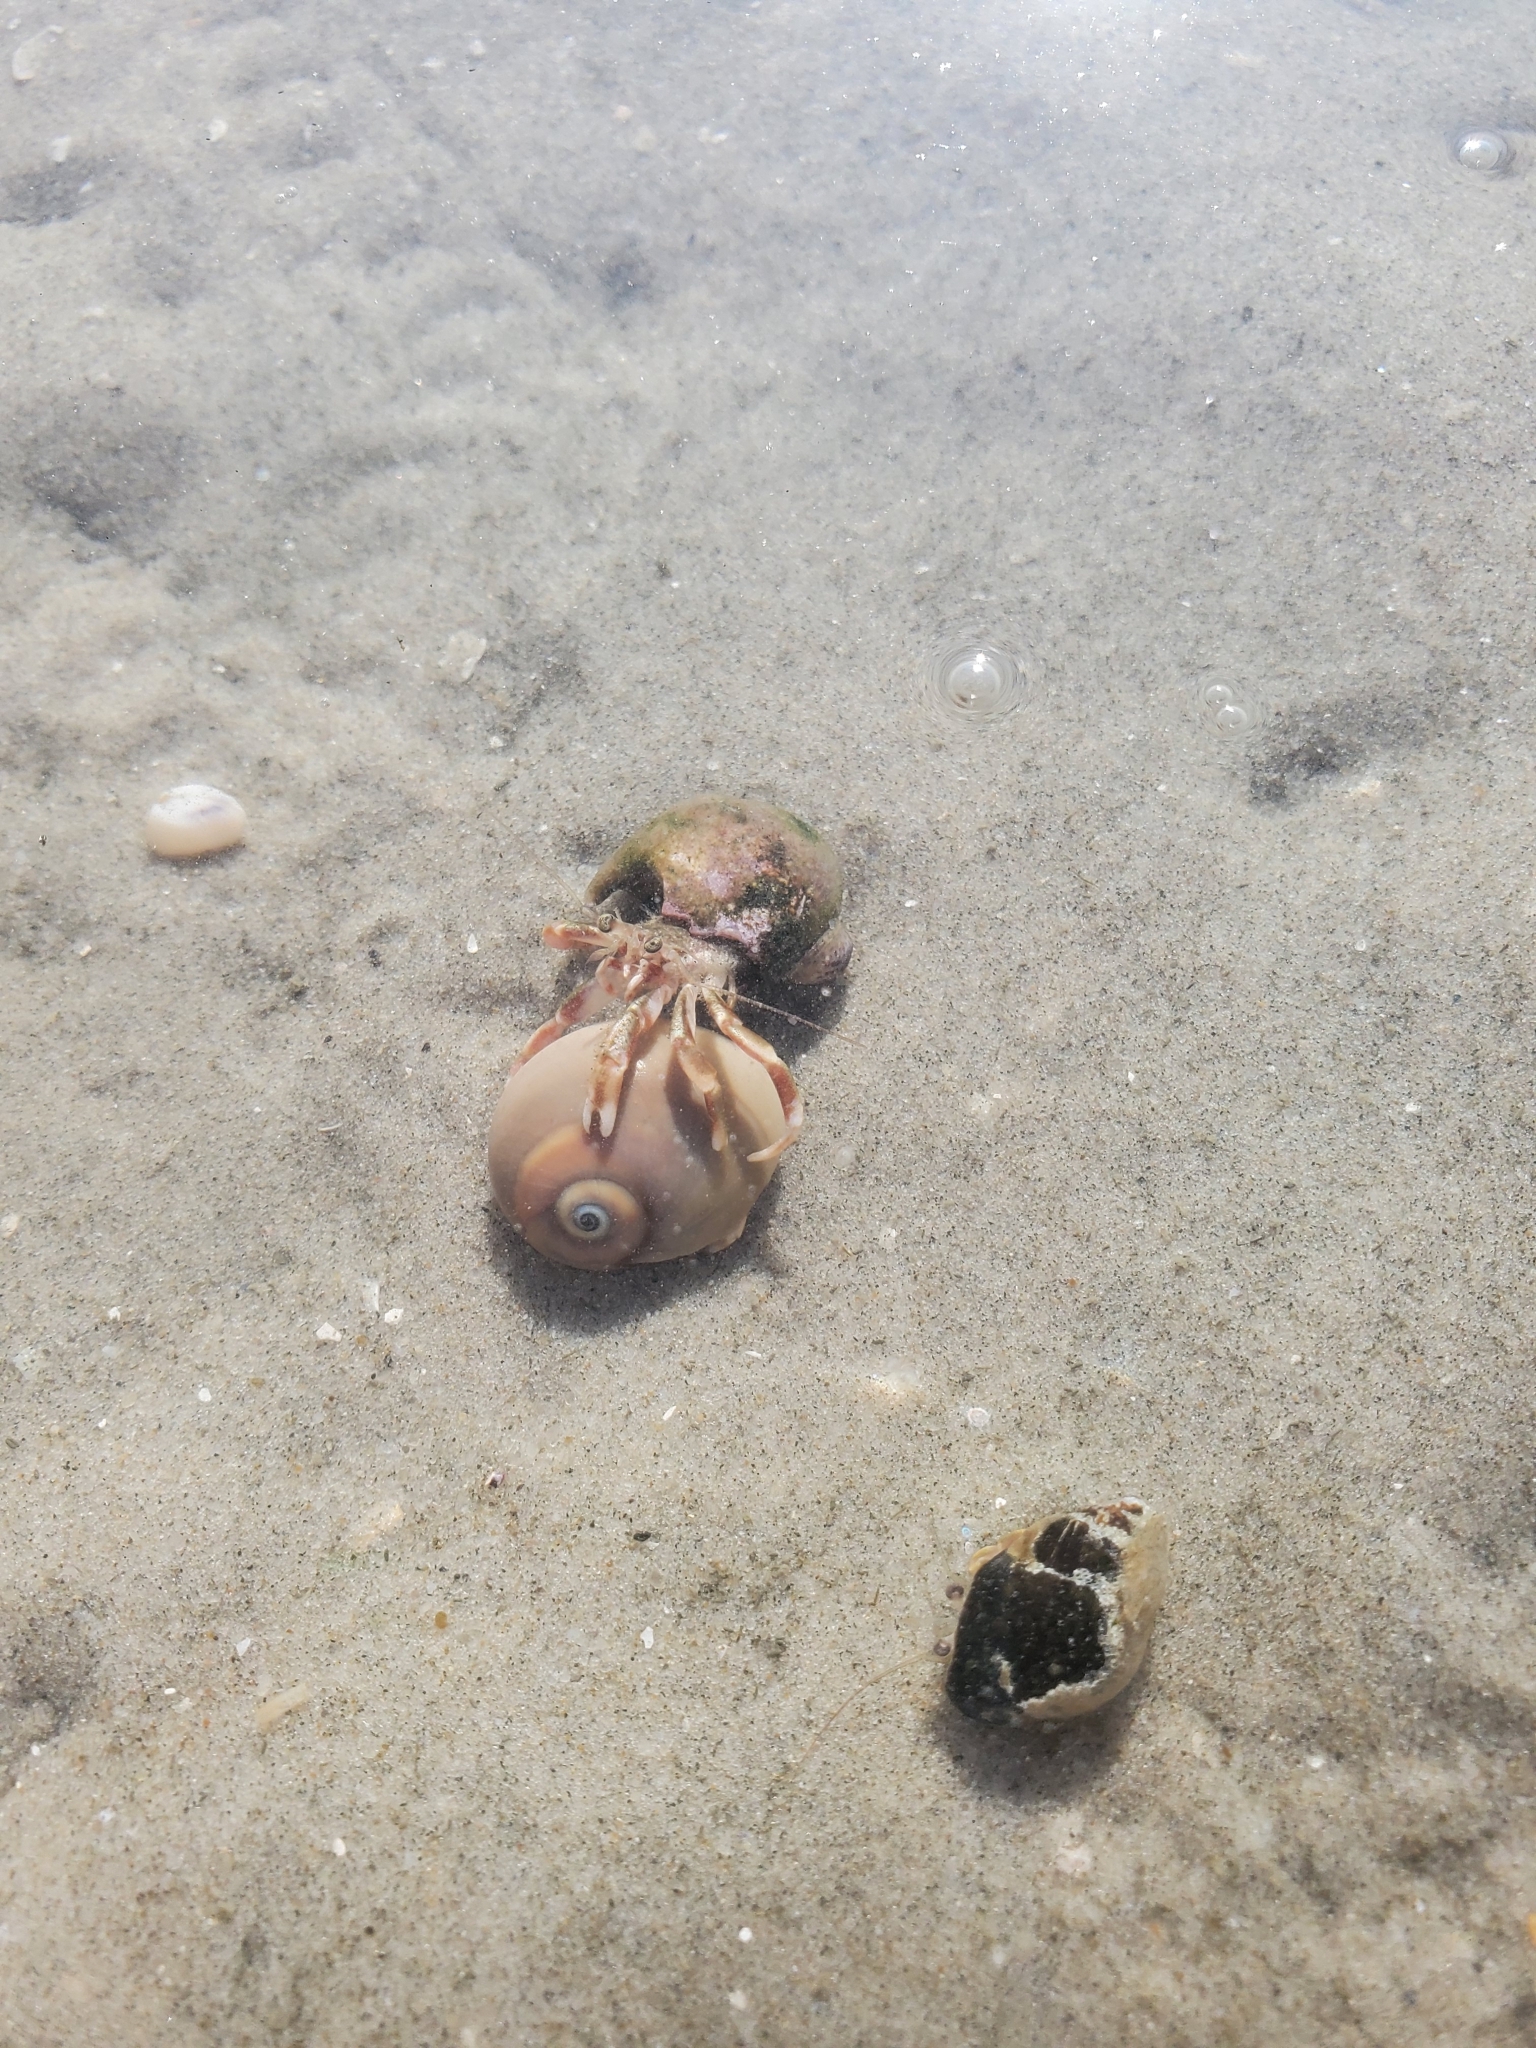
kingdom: Animalia
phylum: Arthropoda
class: Malacostraca
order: Decapoda
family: Paguridae
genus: Pagurus
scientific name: Pagurus longicarpus
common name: Long-armed hermit crab
